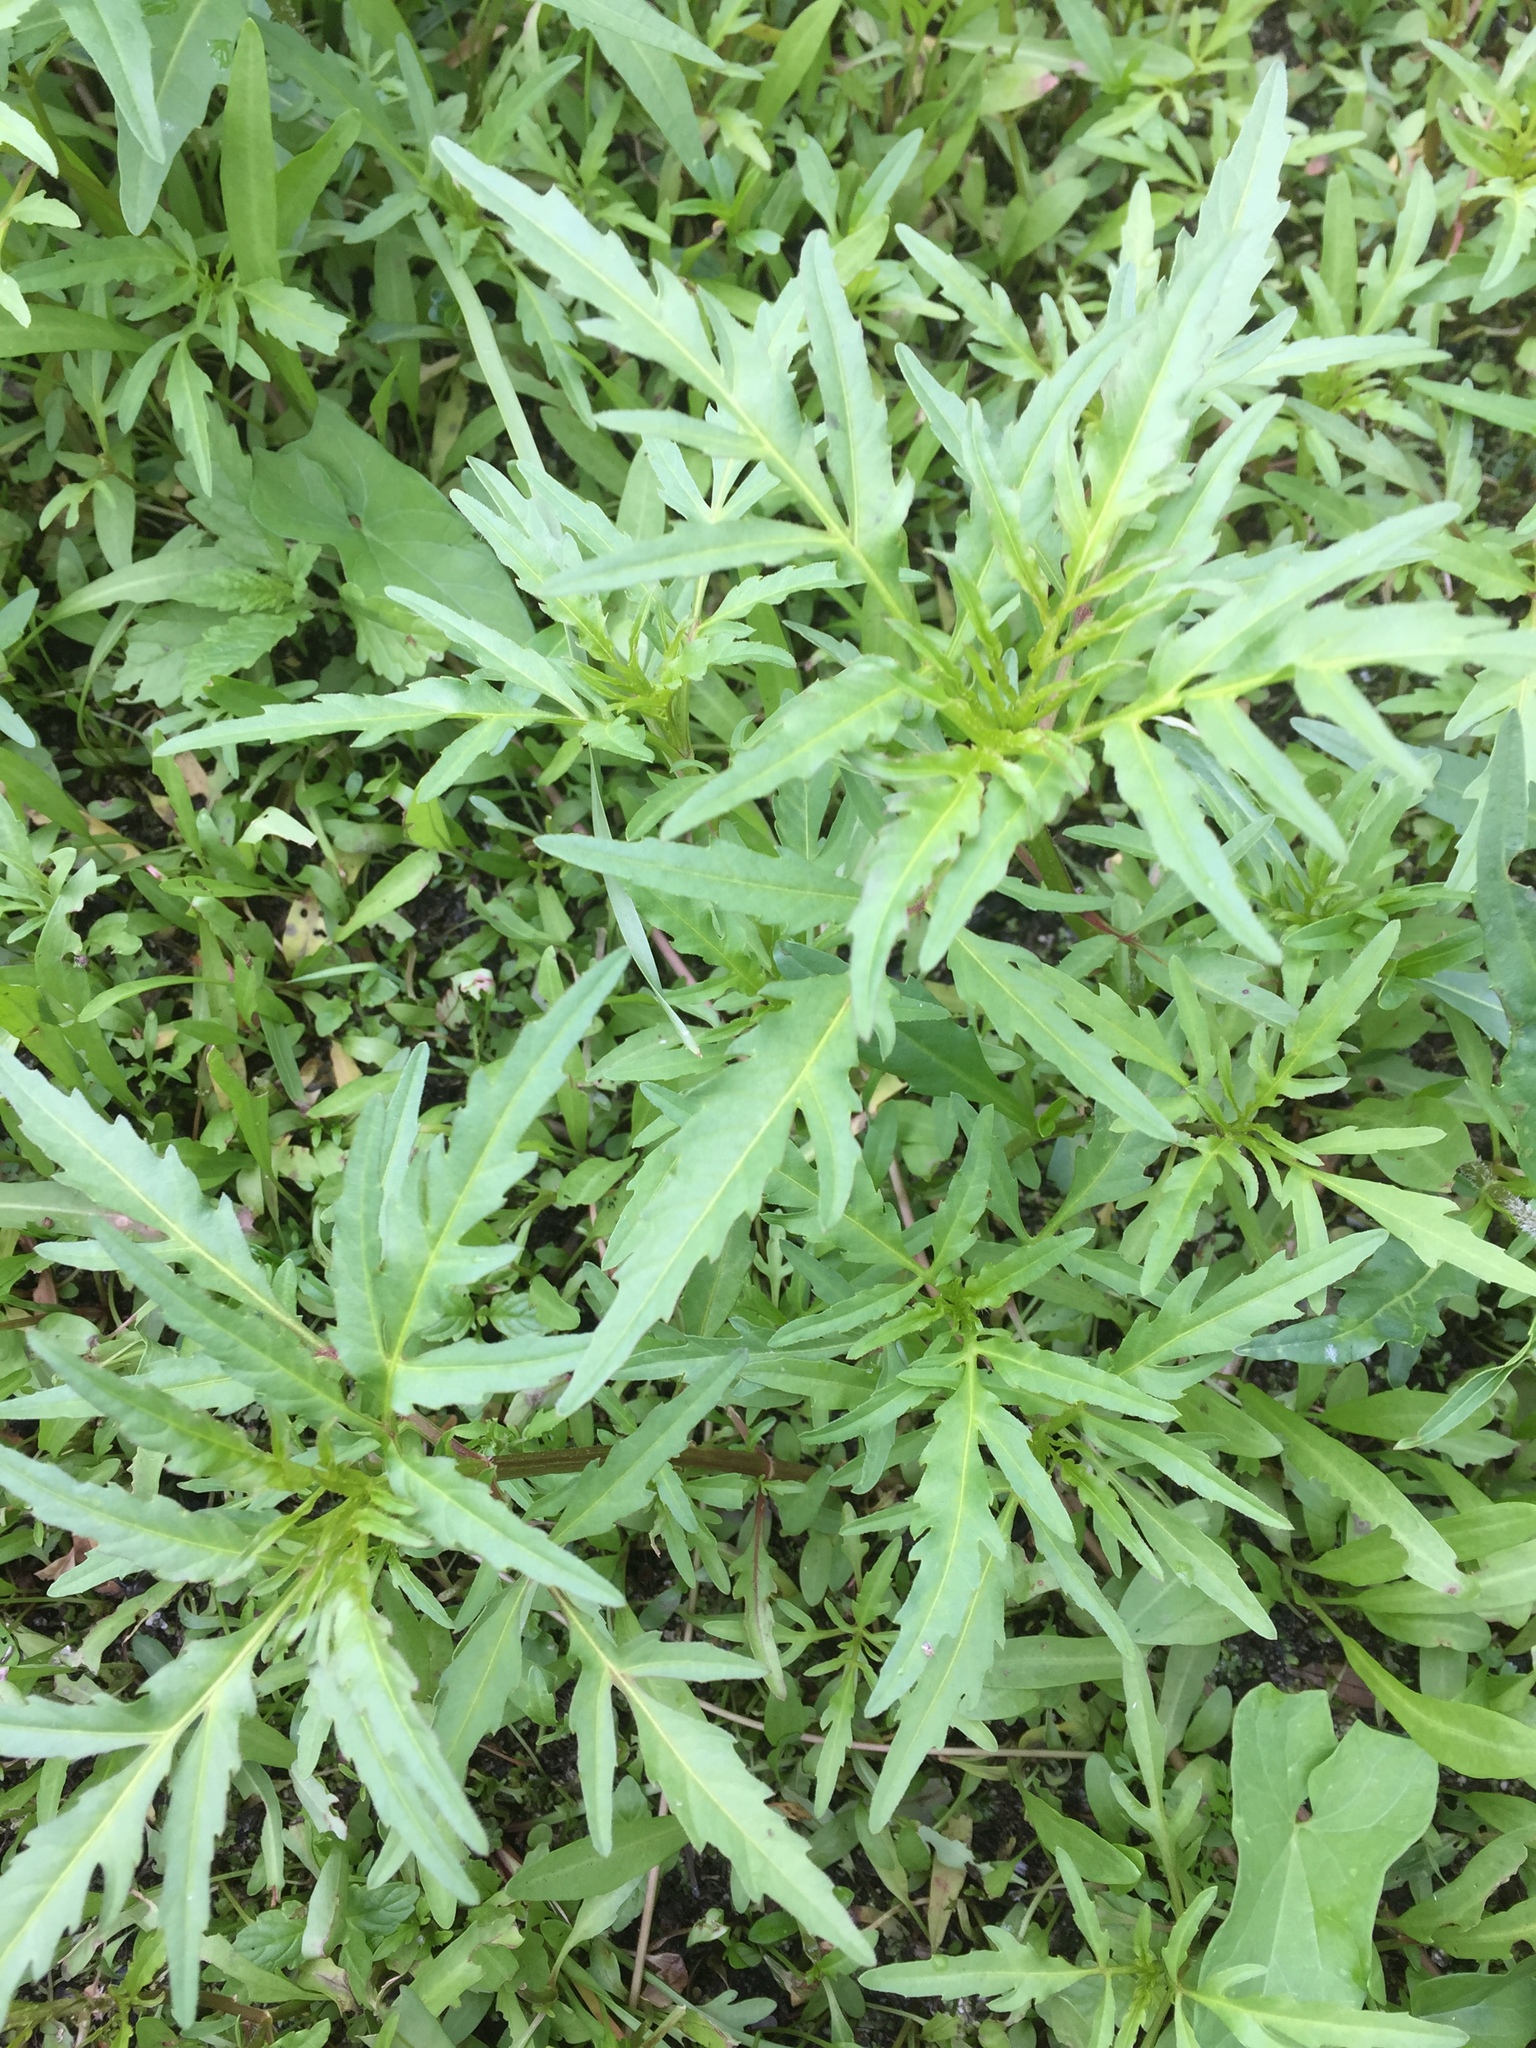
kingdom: Plantae
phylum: Tracheophyta
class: Magnoliopsida
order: Asterales
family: Asteraceae
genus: Bidens
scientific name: Bidens radiata
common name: Radiating bur-marigold
